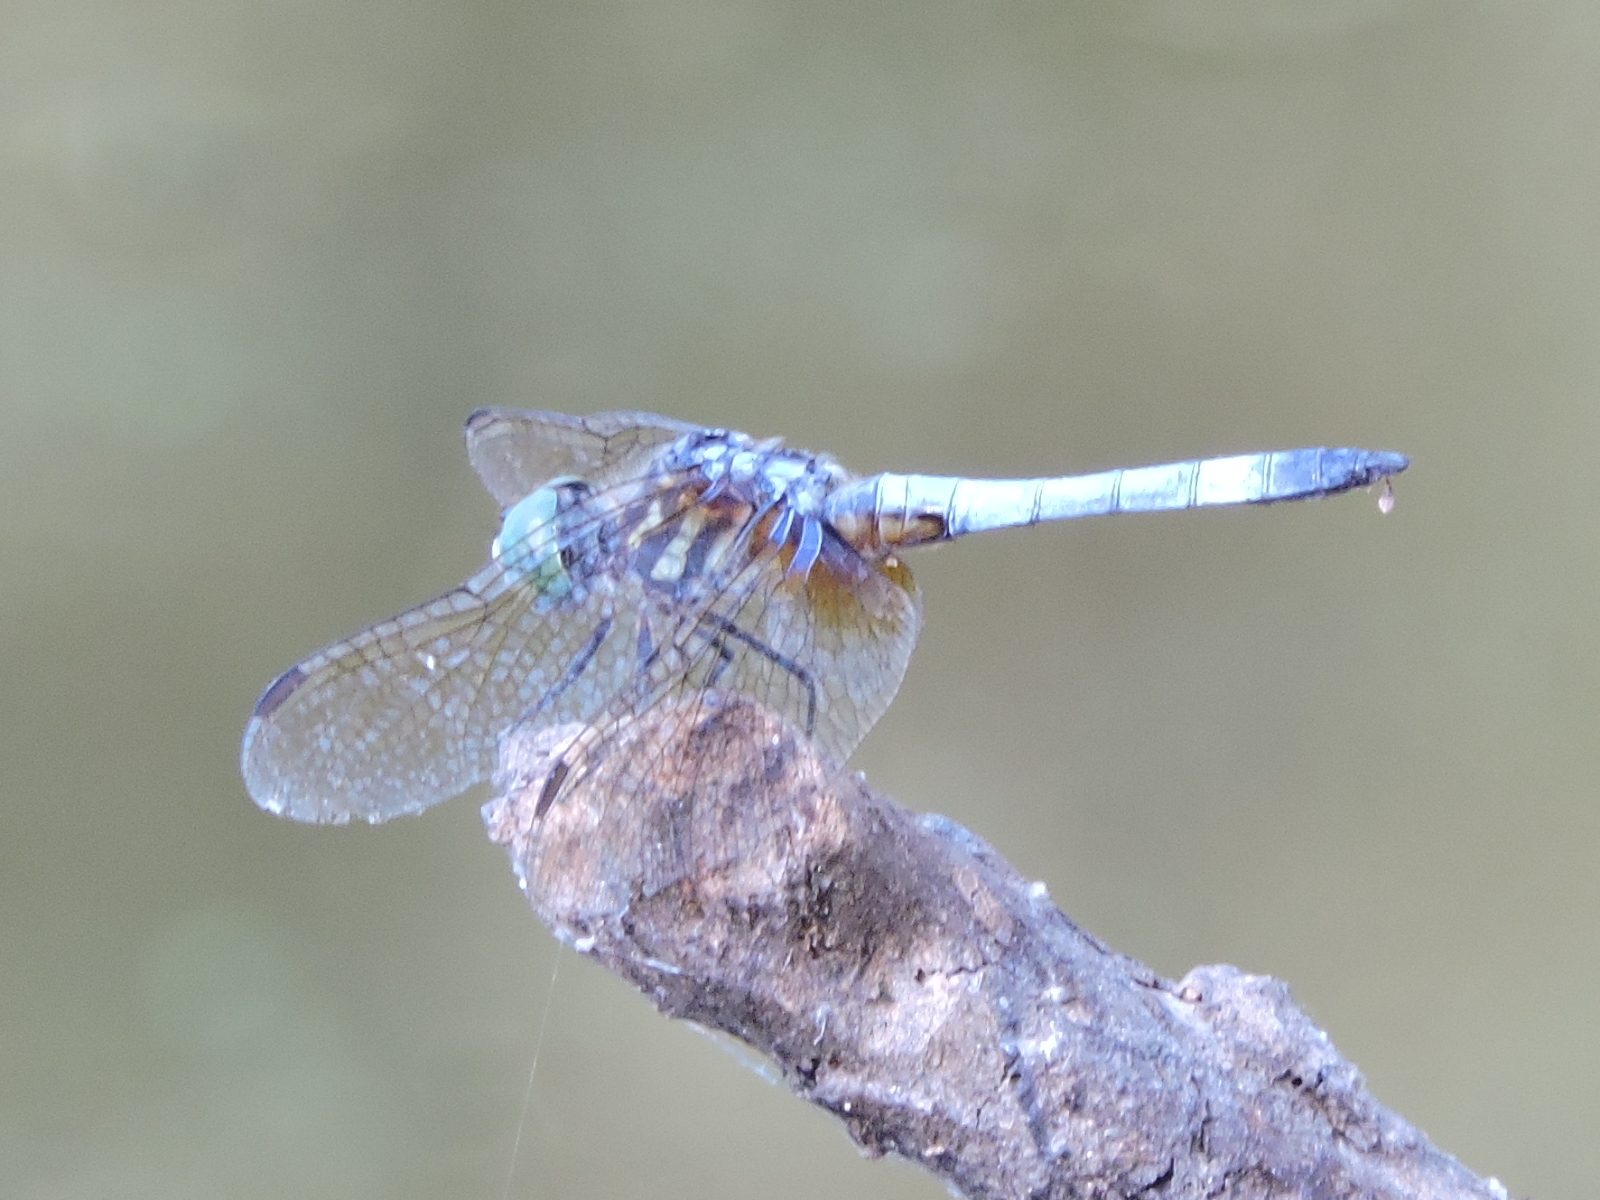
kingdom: Animalia
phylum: Arthropoda
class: Insecta
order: Odonata
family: Libellulidae
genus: Pachydiplax
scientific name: Pachydiplax longipennis
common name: Blue dasher
